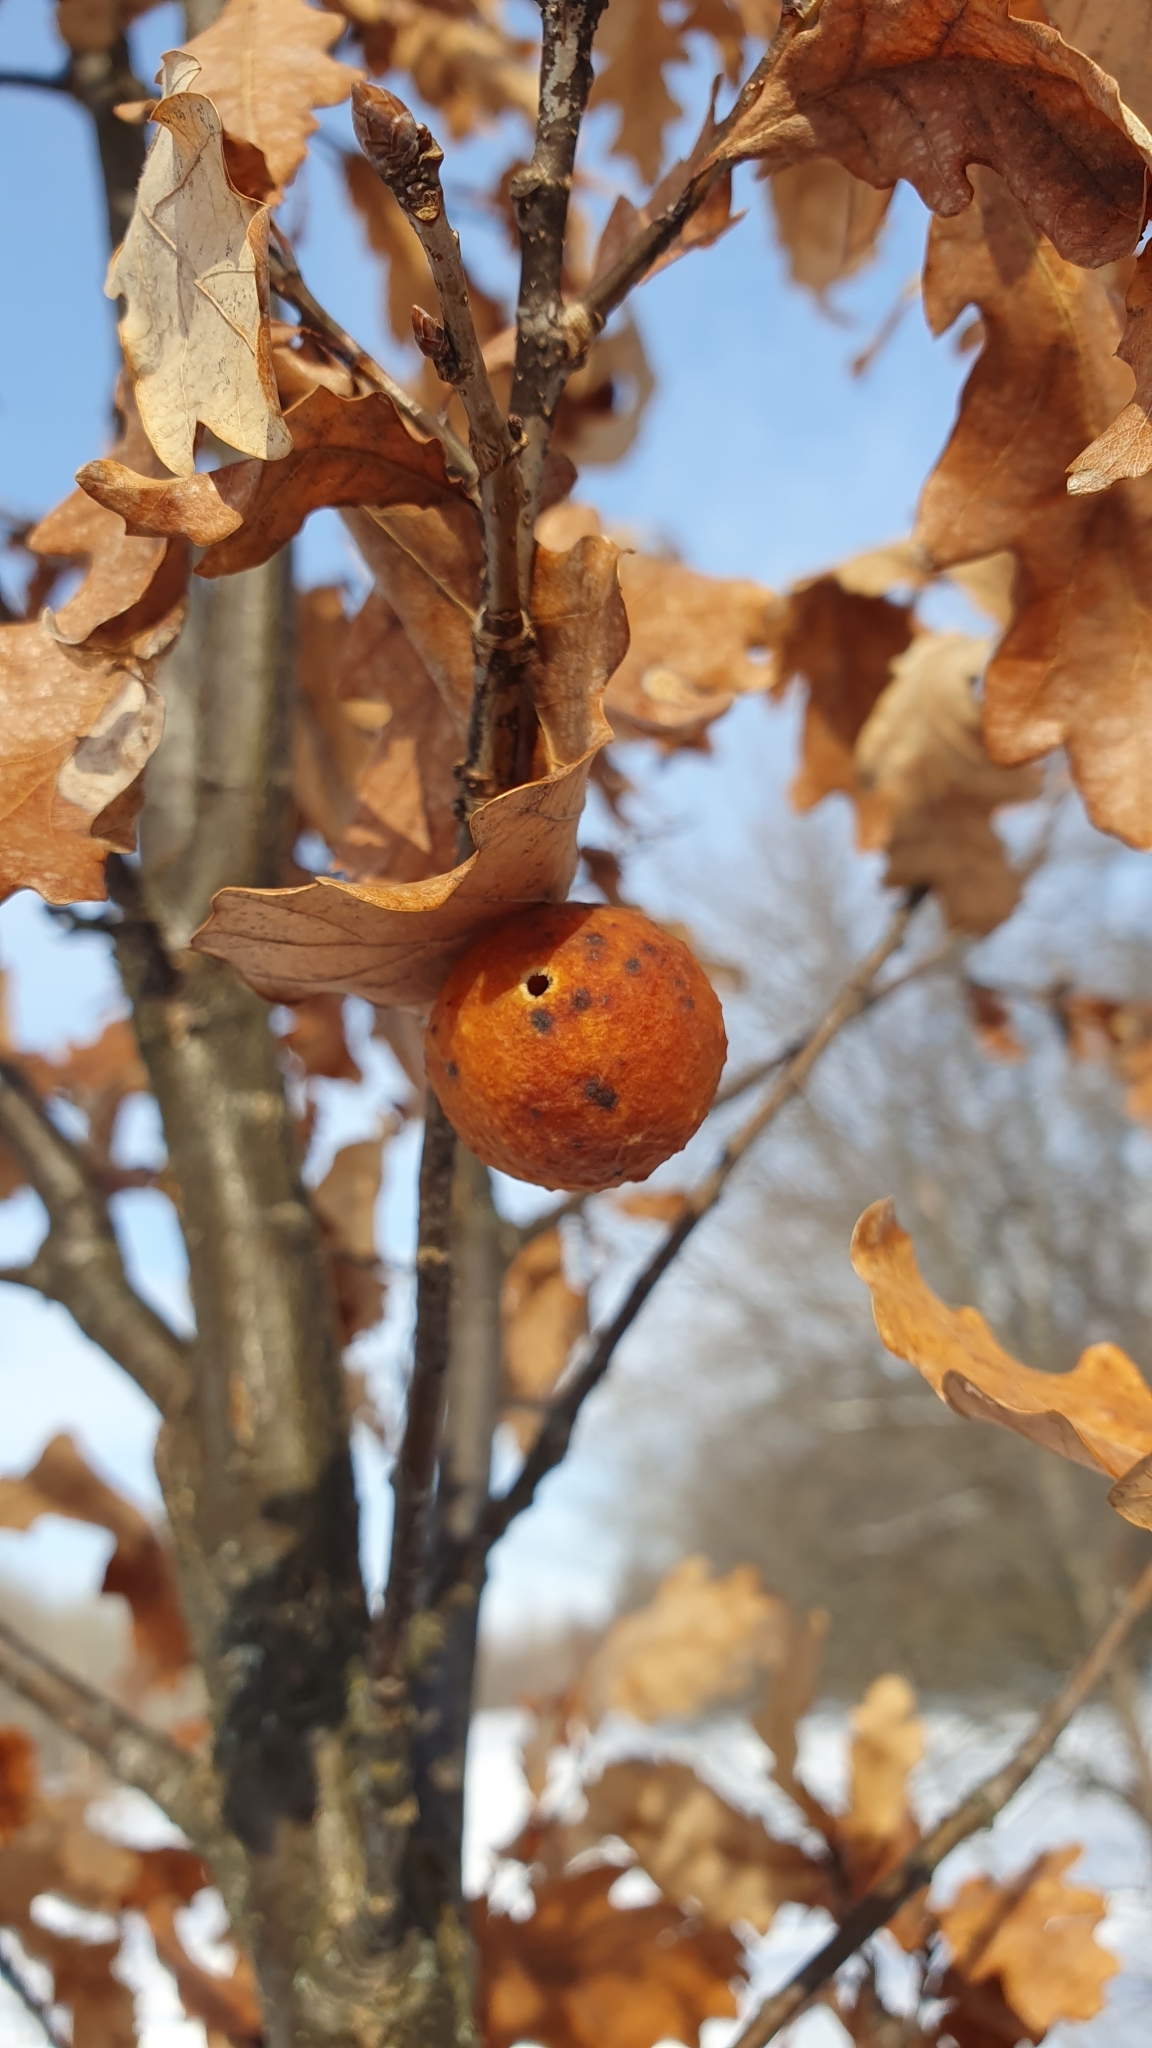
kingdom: Animalia
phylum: Arthropoda
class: Insecta
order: Hymenoptera
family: Cynipidae
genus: Cynips
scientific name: Cynips quercusfolii
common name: Cherry gall
